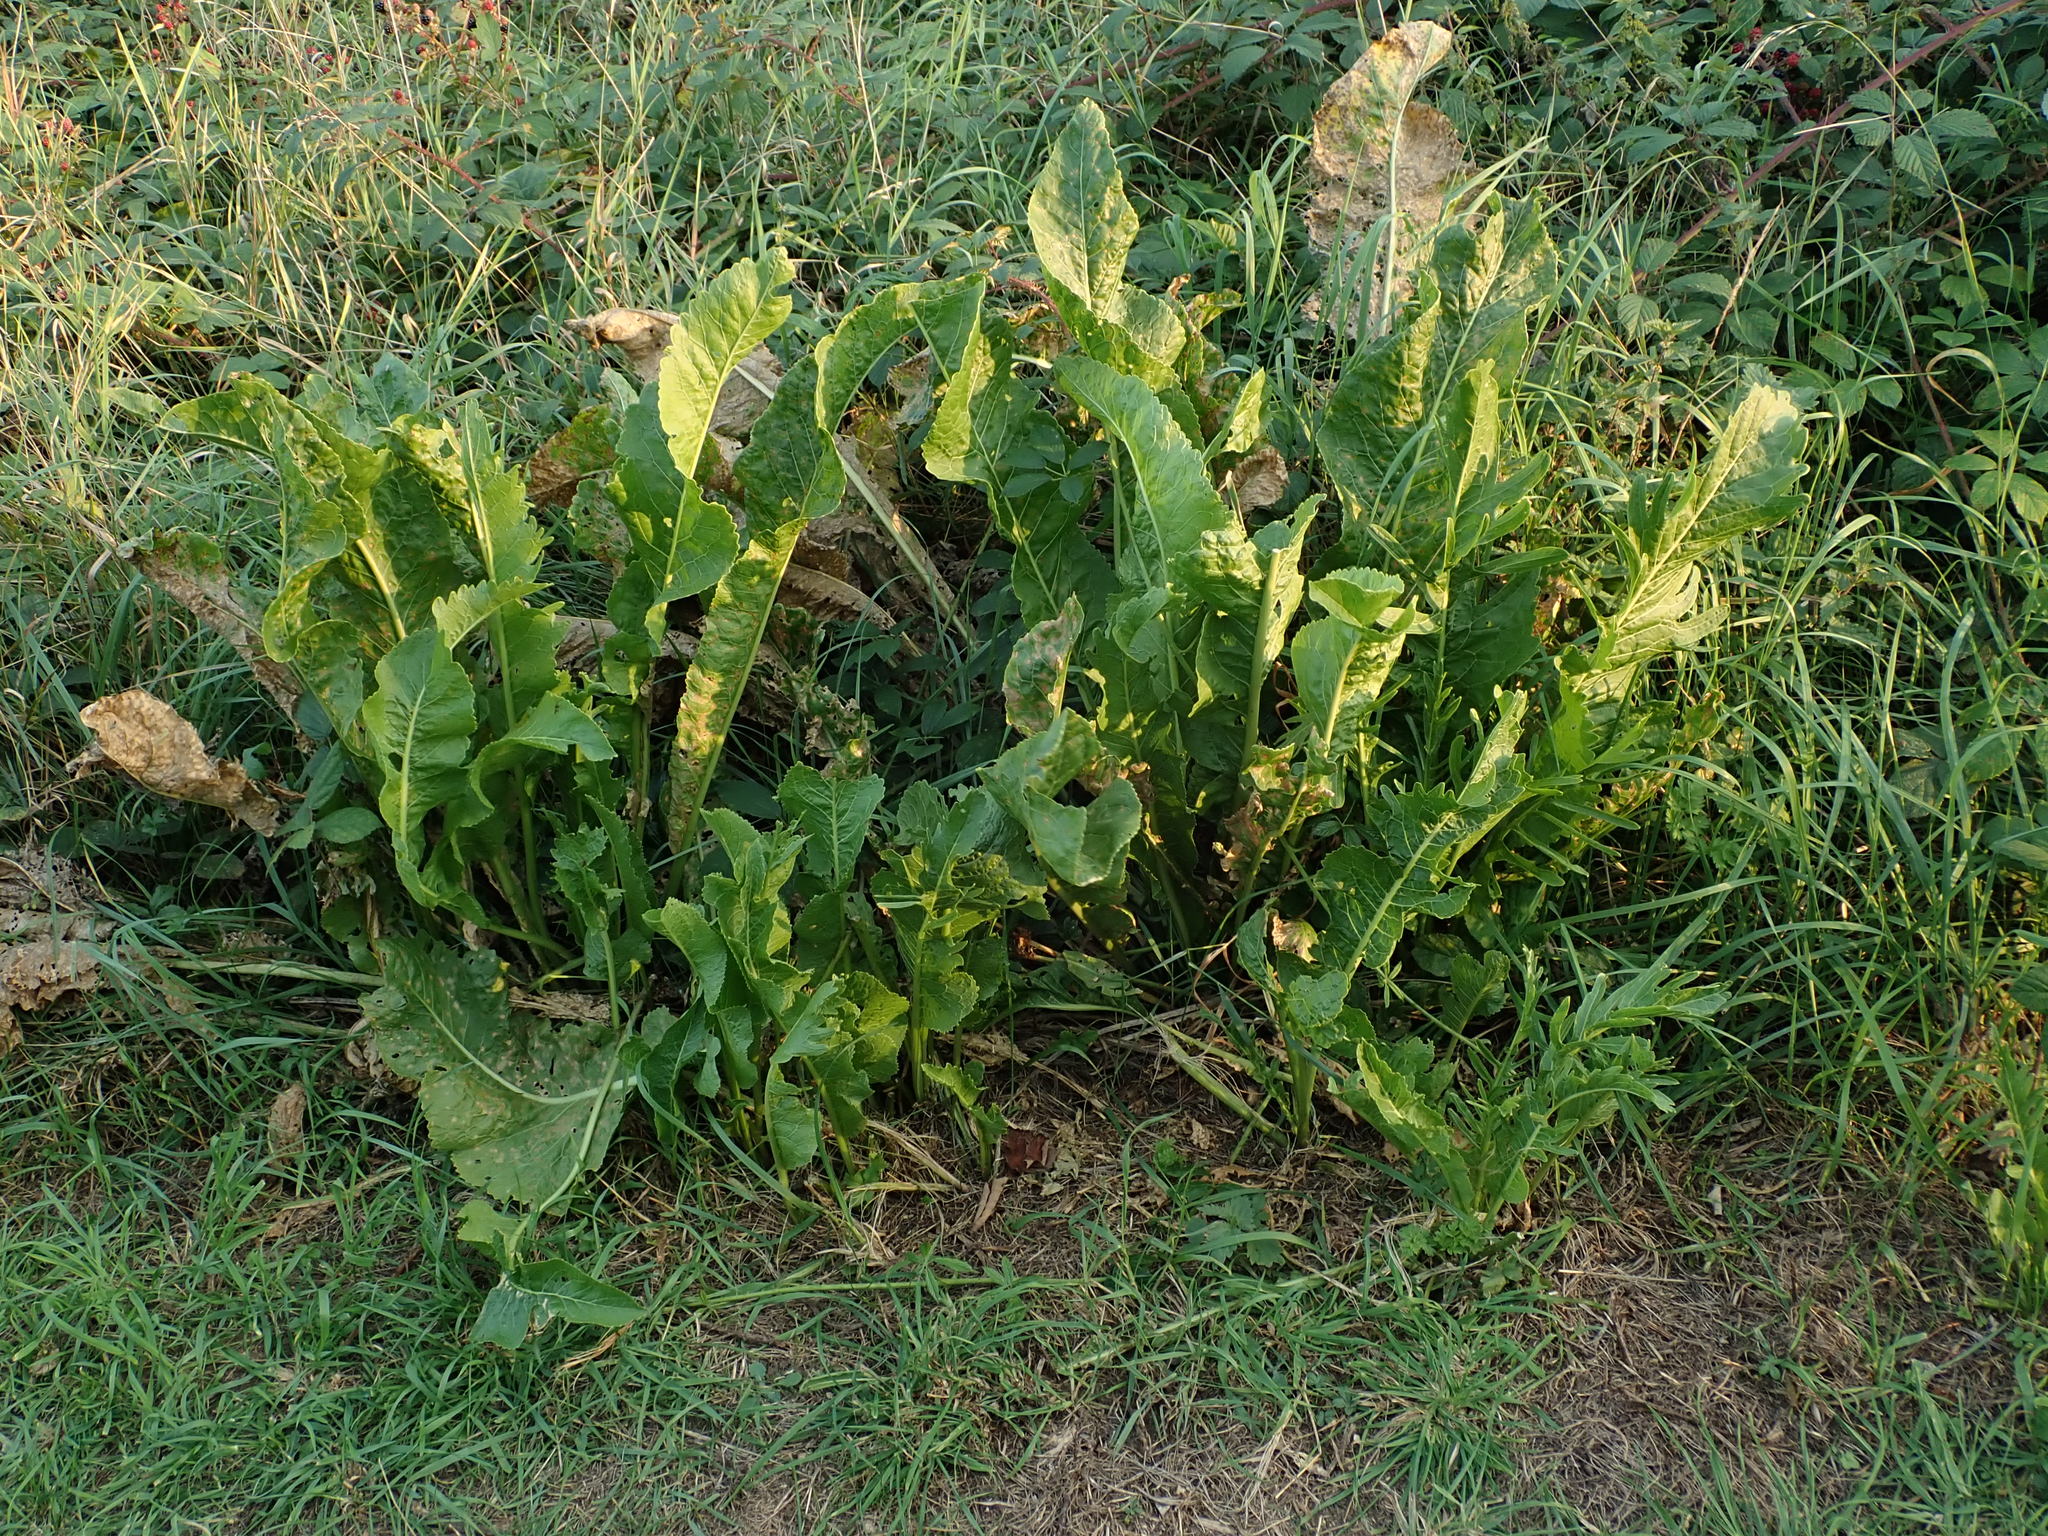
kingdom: Plantae
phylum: Tracheophyta
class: Magnoliopsida
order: Brassicales
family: Brassicaceae
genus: Armoracia
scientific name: Armoracia rusticana
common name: Horseradish
